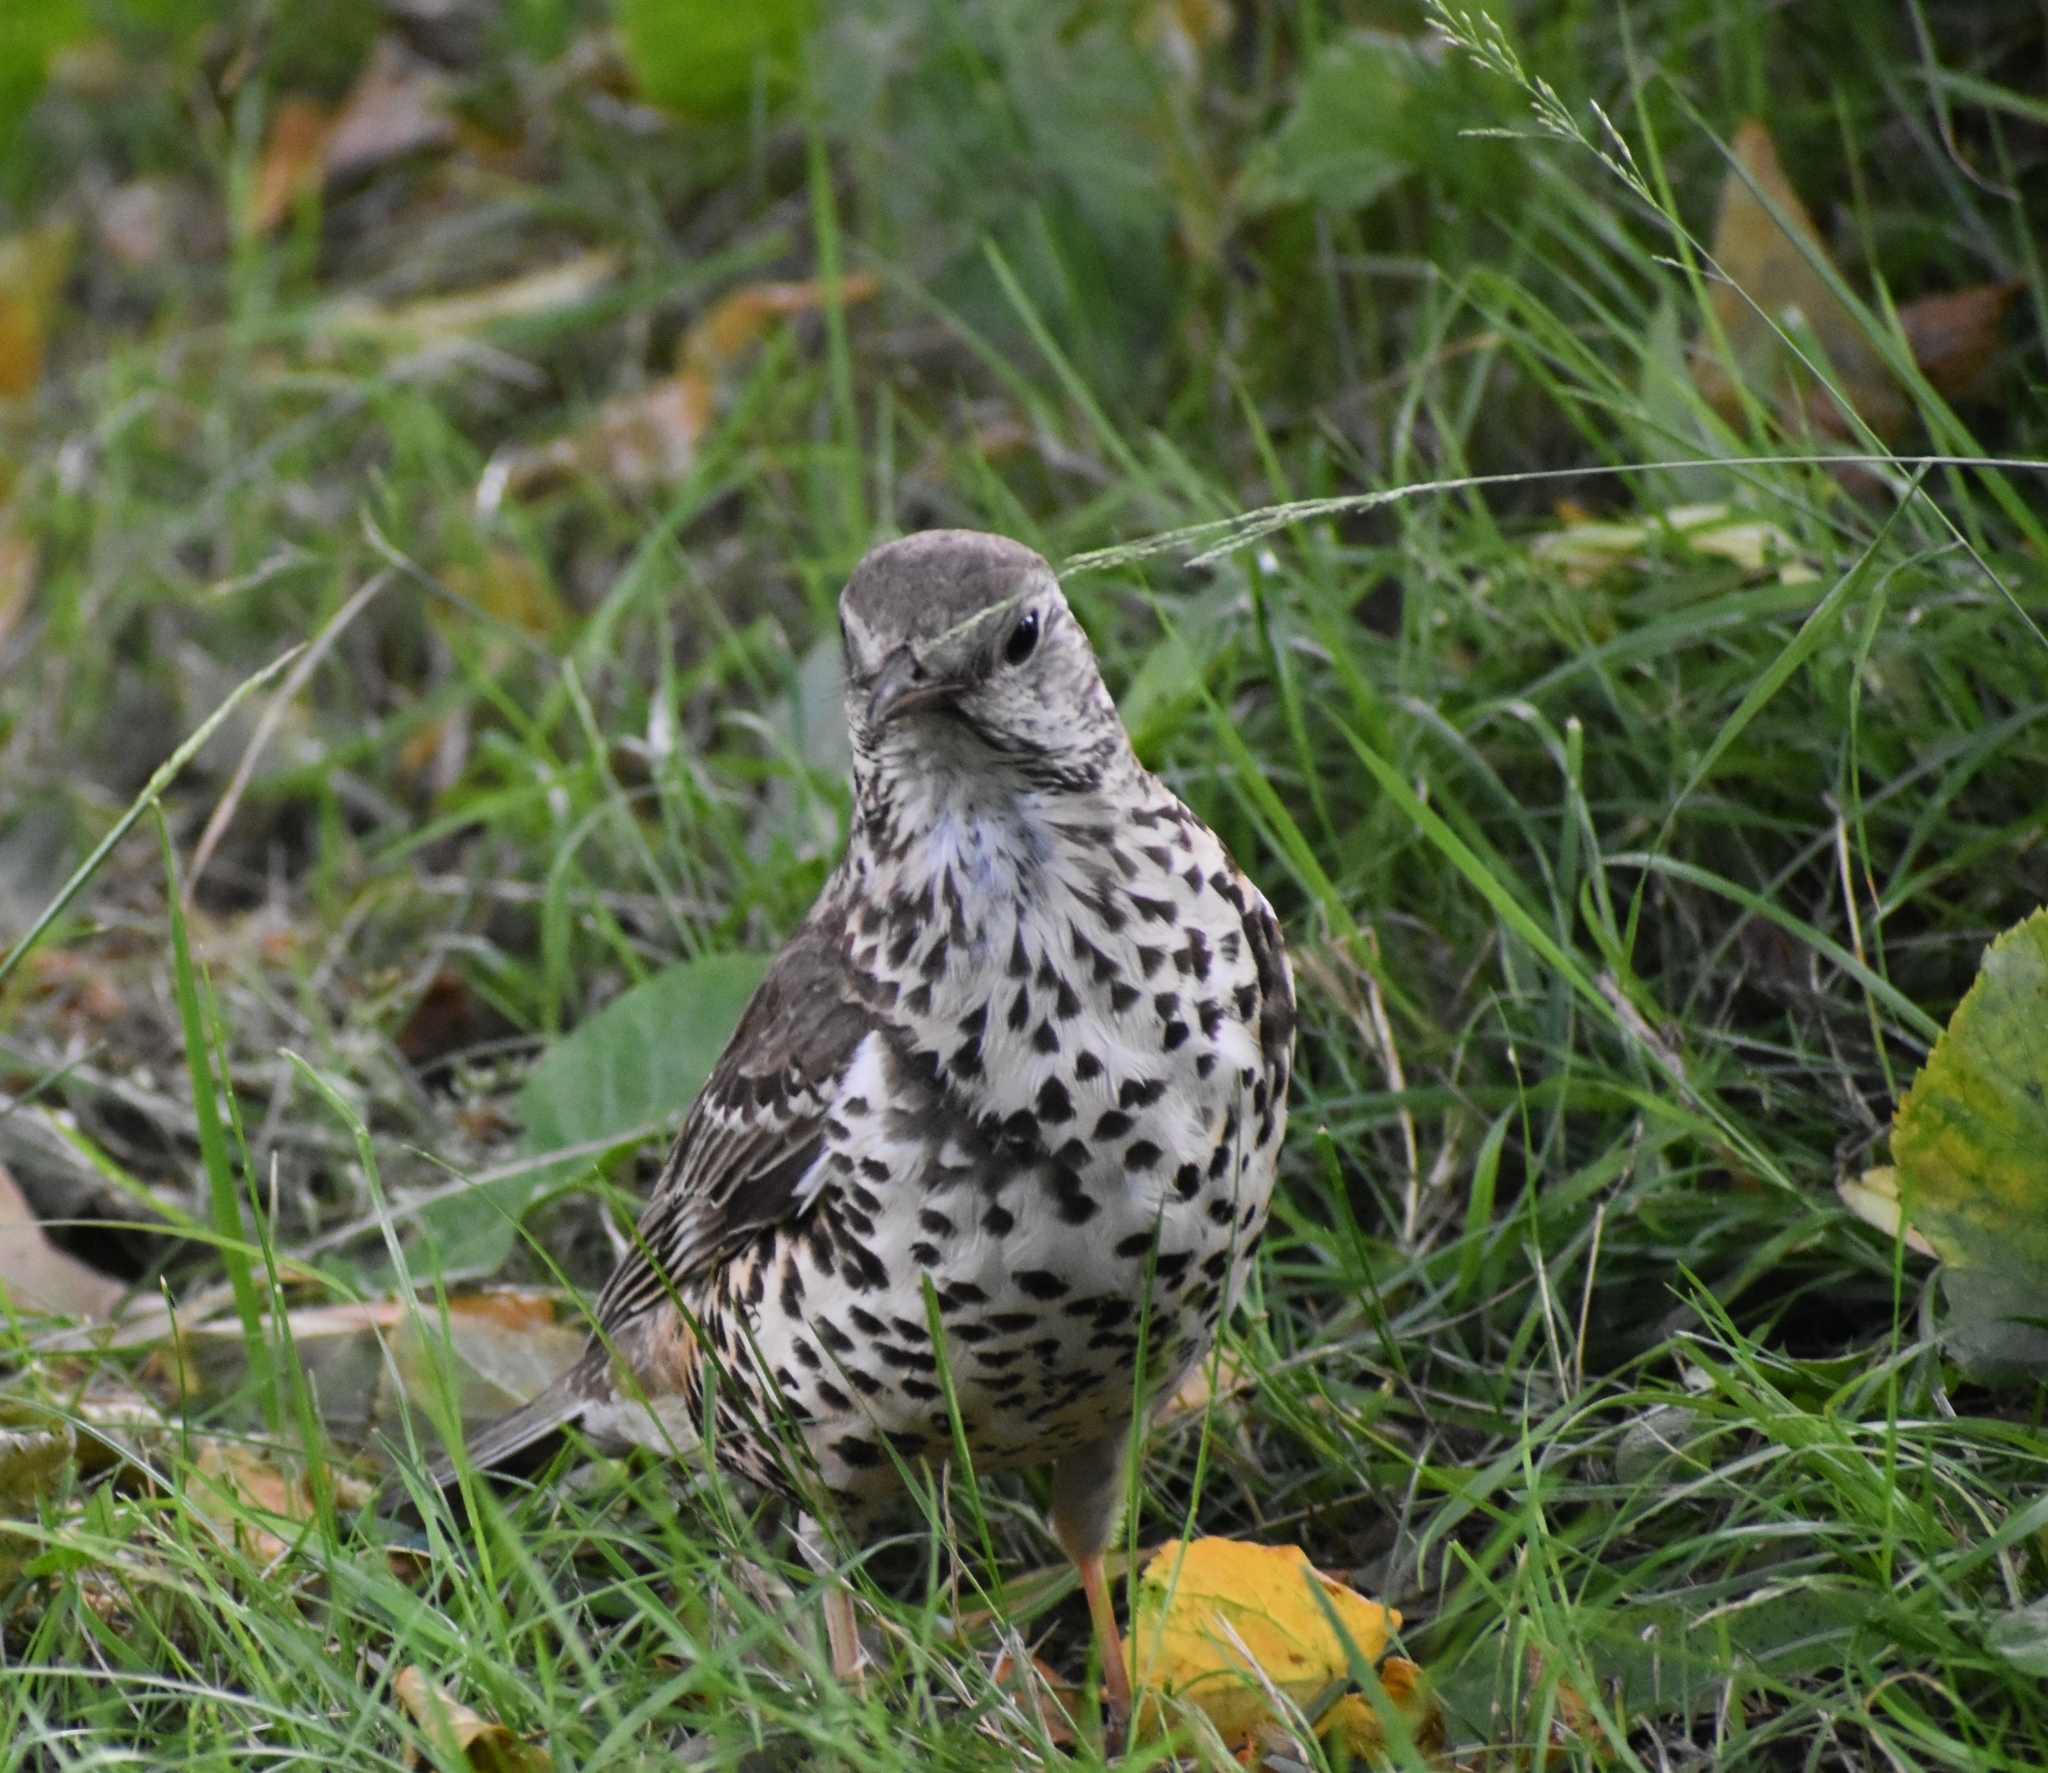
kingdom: Animalia
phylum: Chordata
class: Aves
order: Passeriformes
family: Turdidae
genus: Turdus
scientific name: Turdus viscivorus
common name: Mistle thrush
